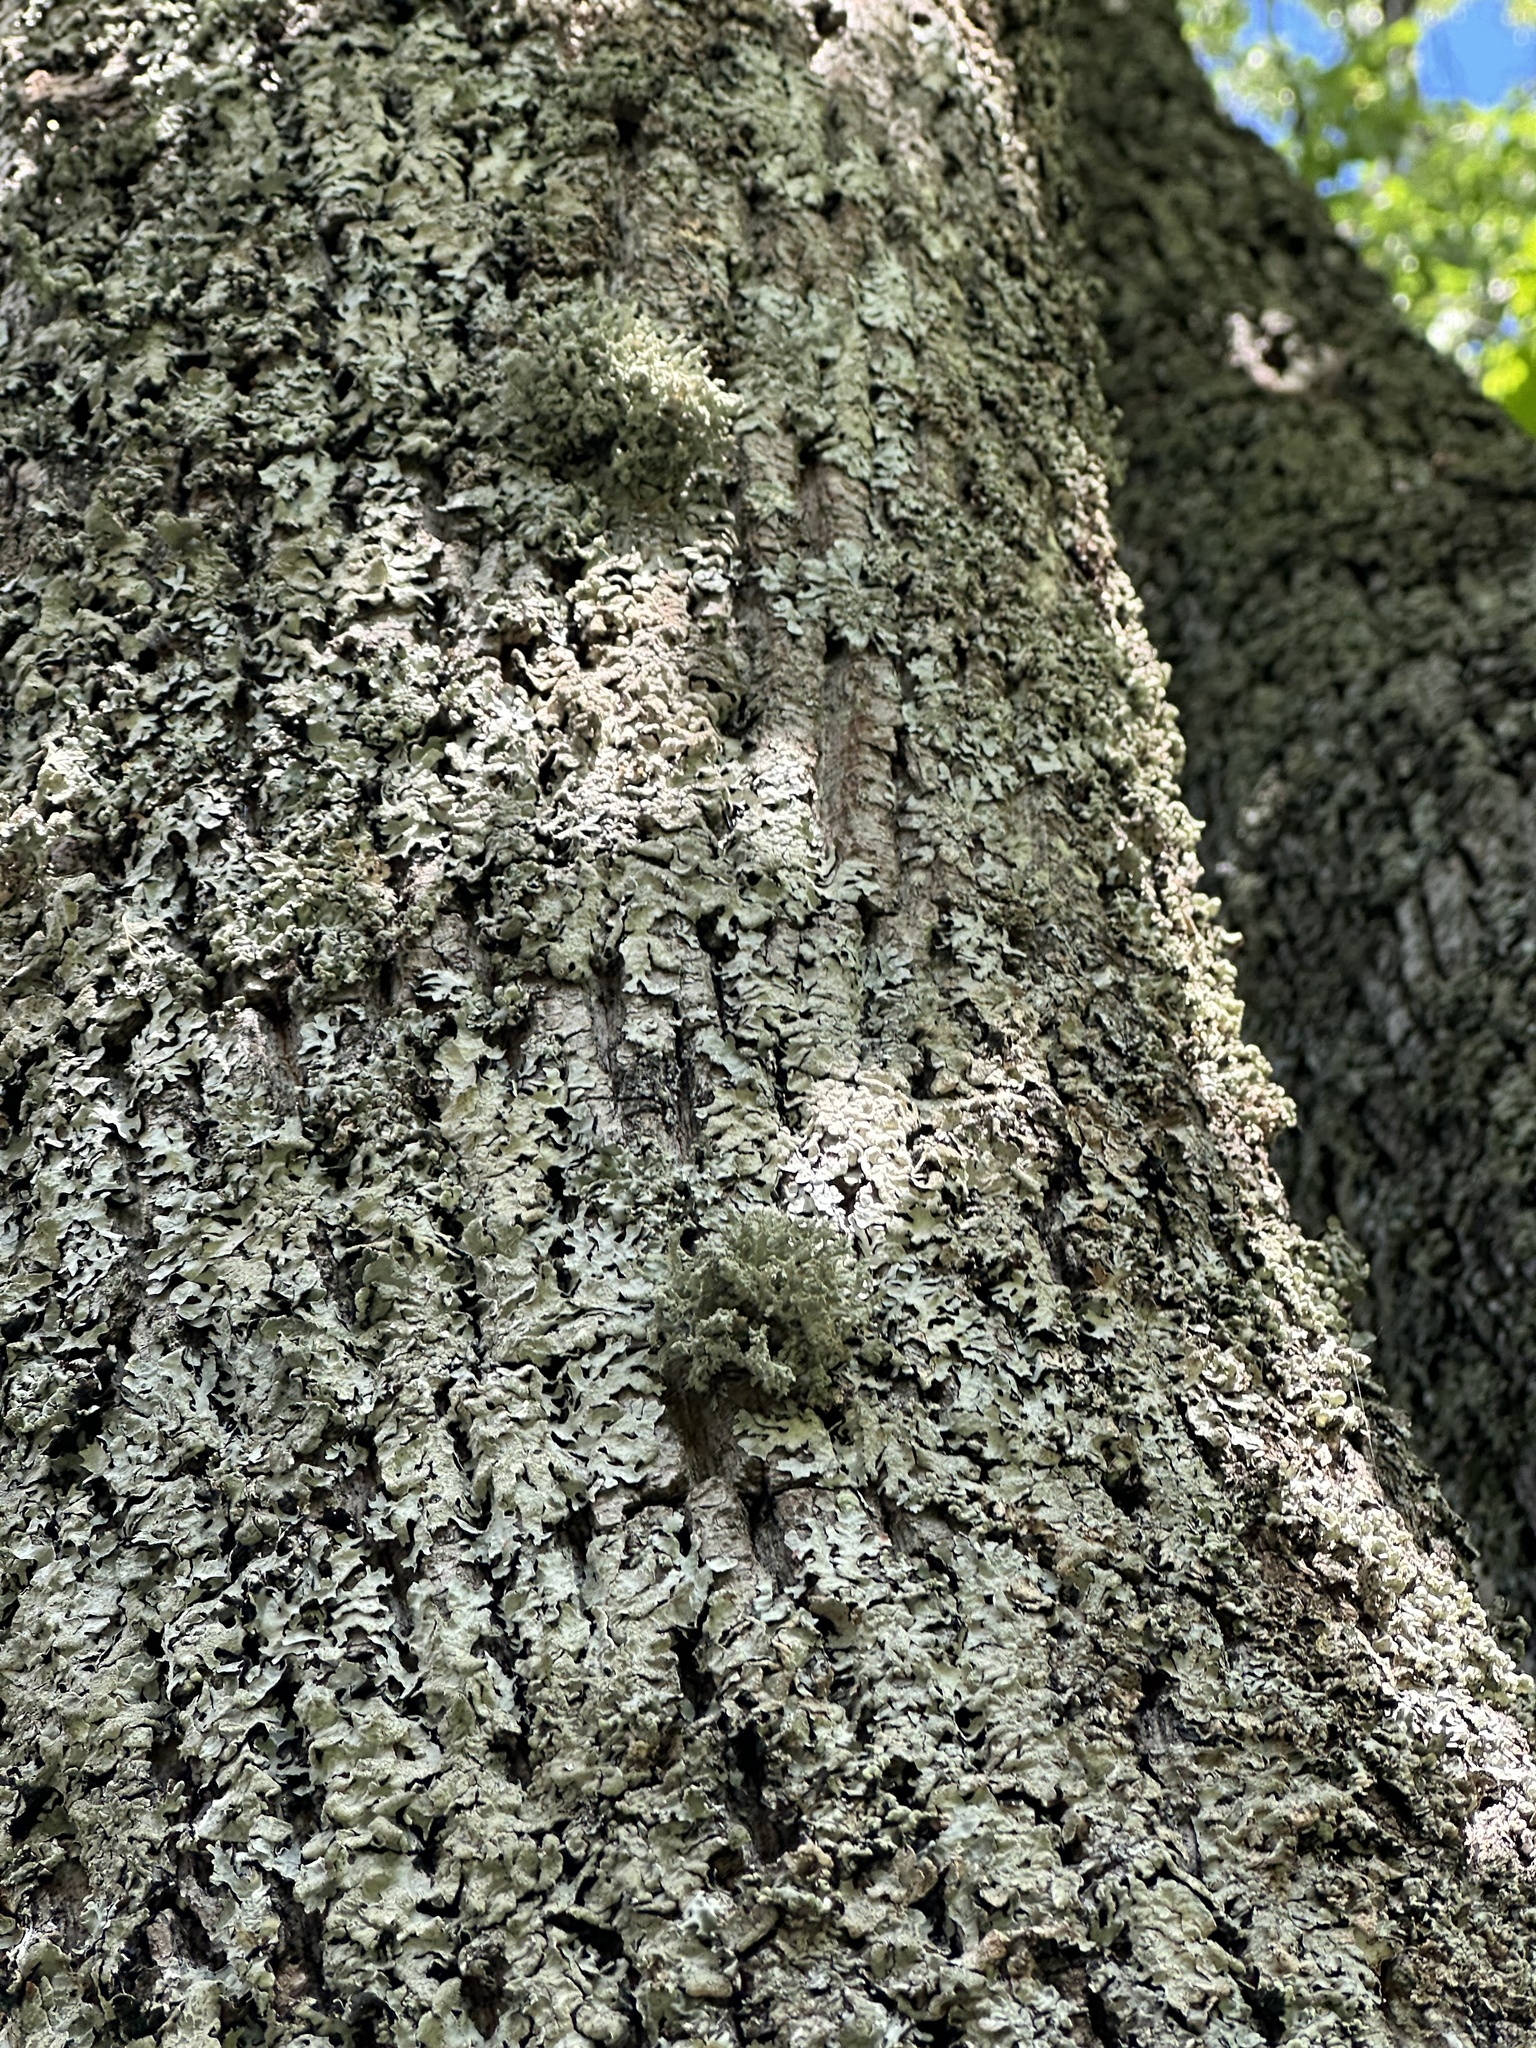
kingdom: Fungi
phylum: Ascomycota
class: Lecanoromycetes
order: Lecanorales
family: Parmeliaceae
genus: Evernia
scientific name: Evernia prunastri
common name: Oak moss
